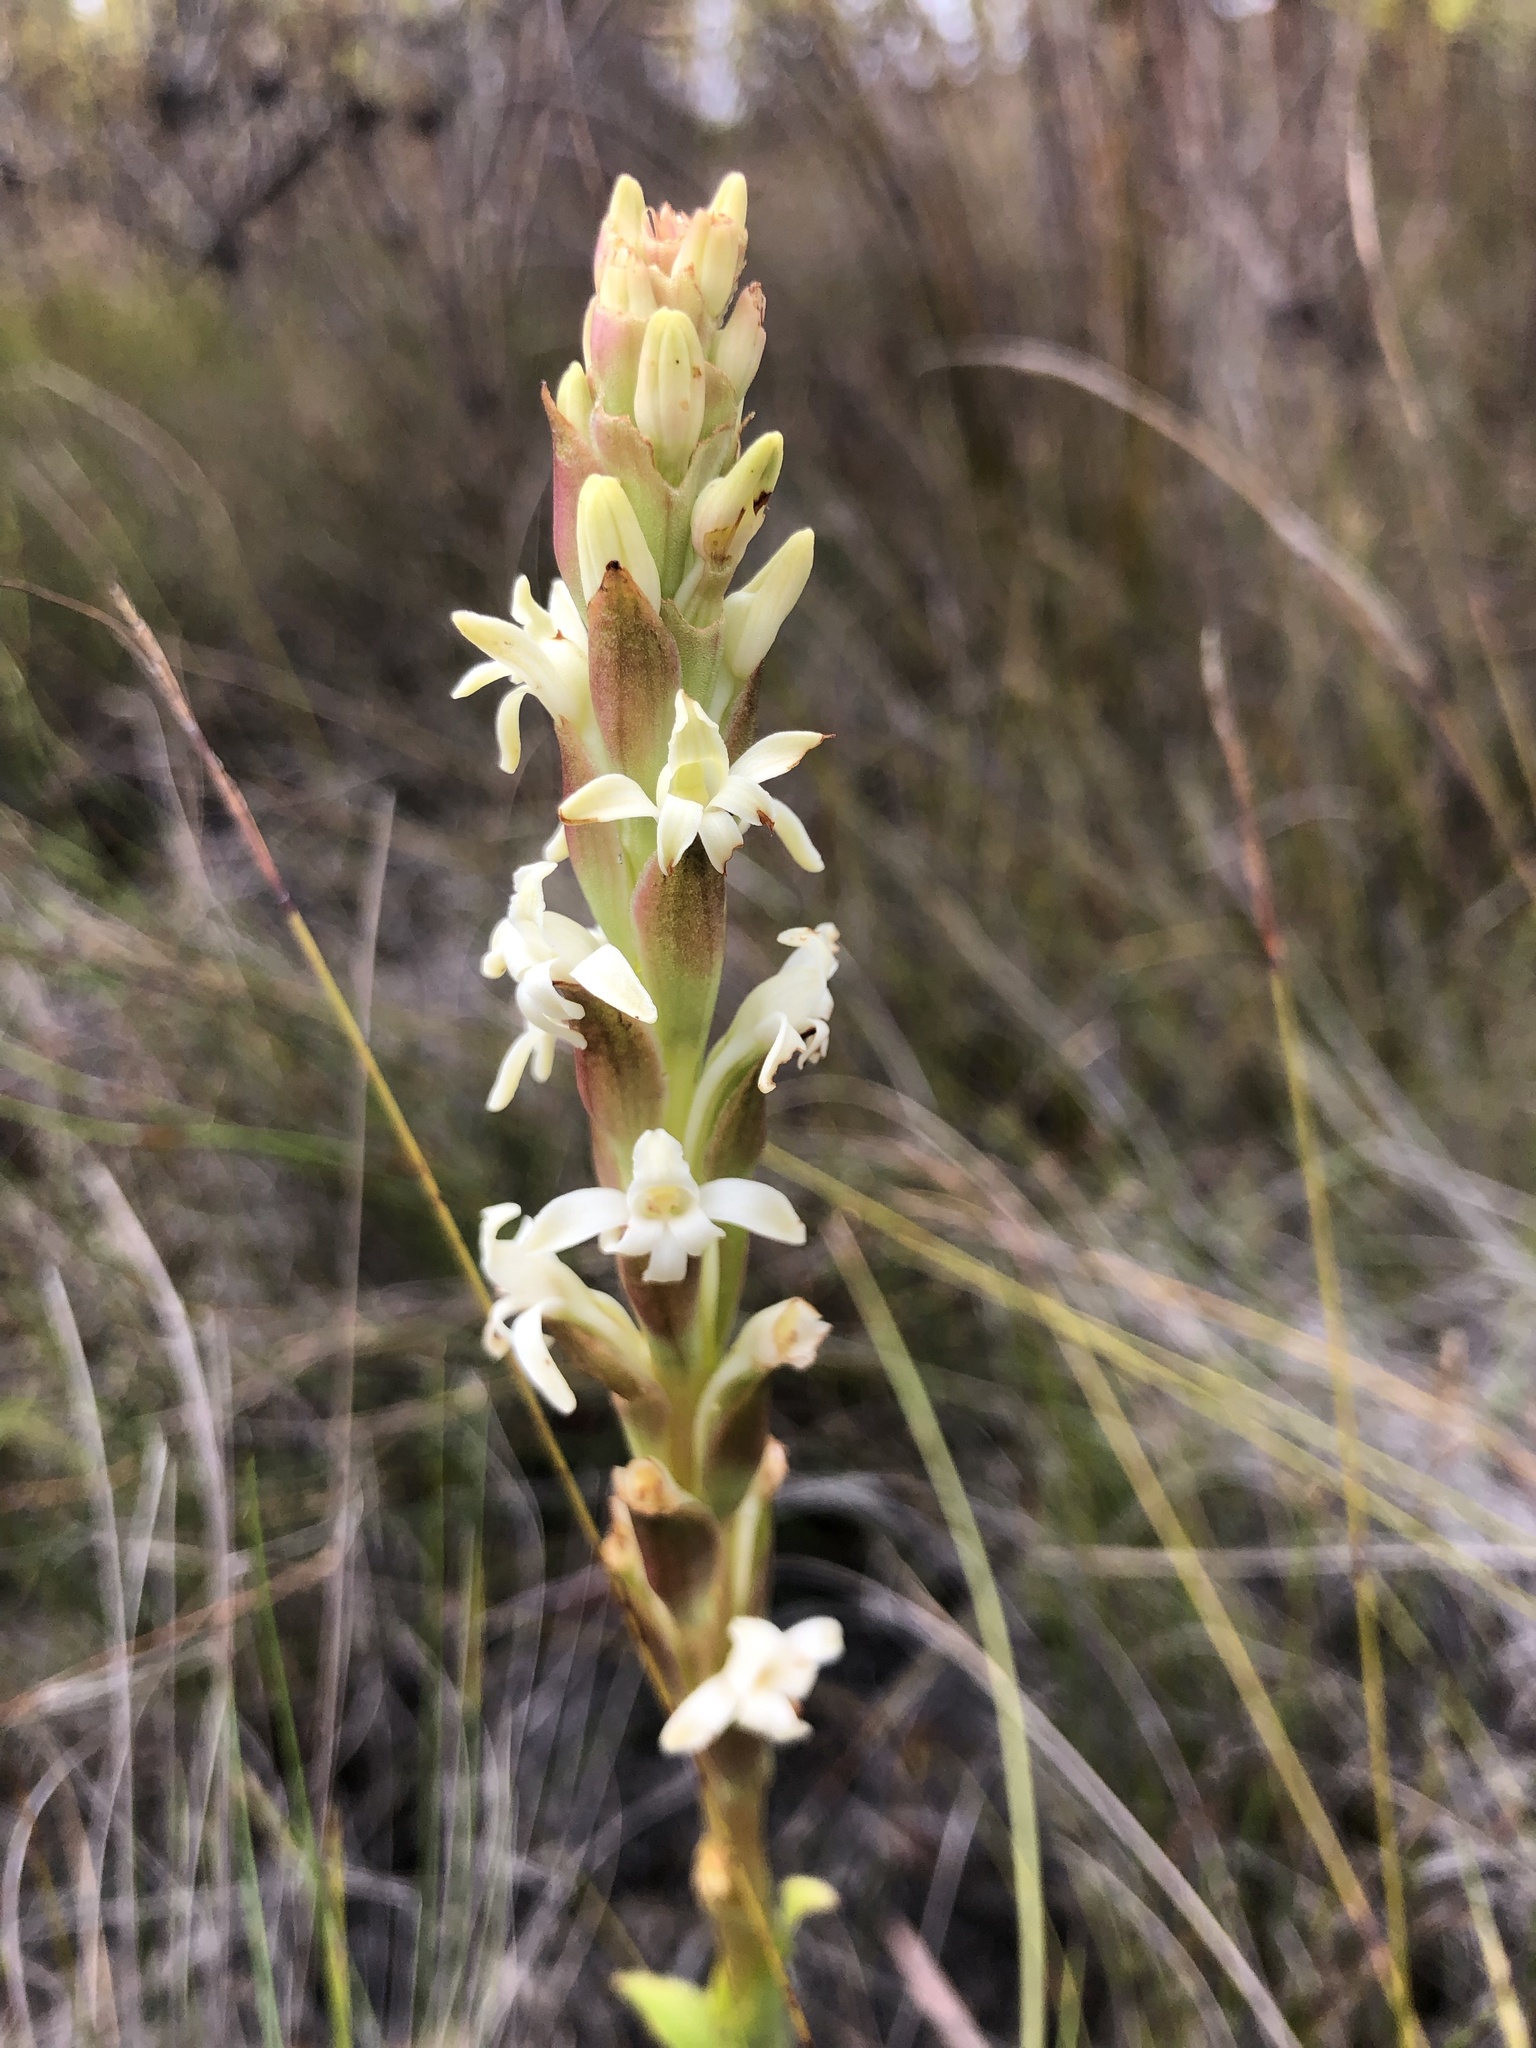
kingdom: Plantae
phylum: Tracheophyta
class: Liliopsida
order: Asparagales
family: Orchidaceae
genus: Satyrium
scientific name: Satyrium stenopetalum
